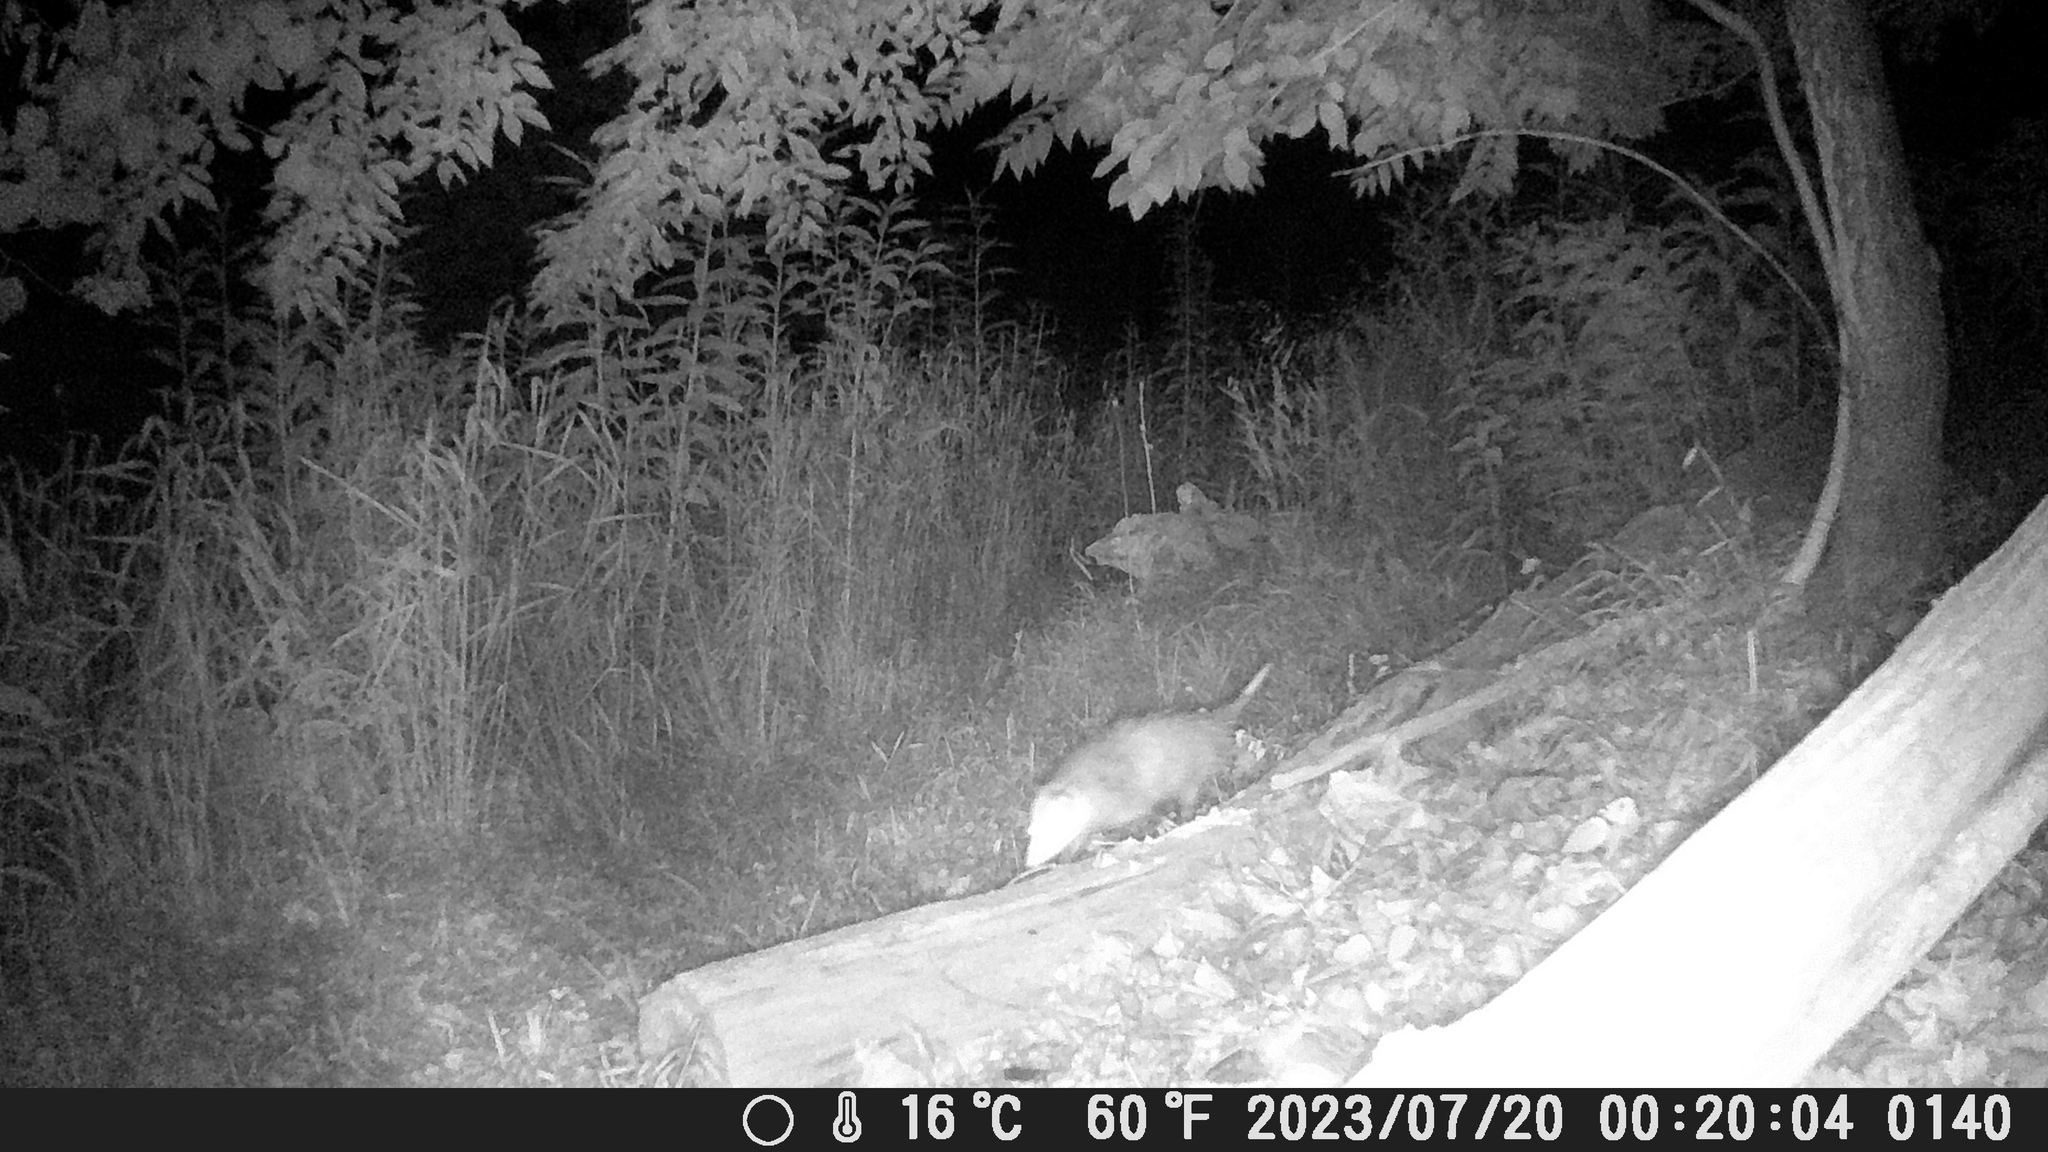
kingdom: Animalia
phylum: Chordata
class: Mammalia
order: Didelphimorphia
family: Didelphidae
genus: Didelphis
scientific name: Didelphis virginiana
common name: Virginia opossum
